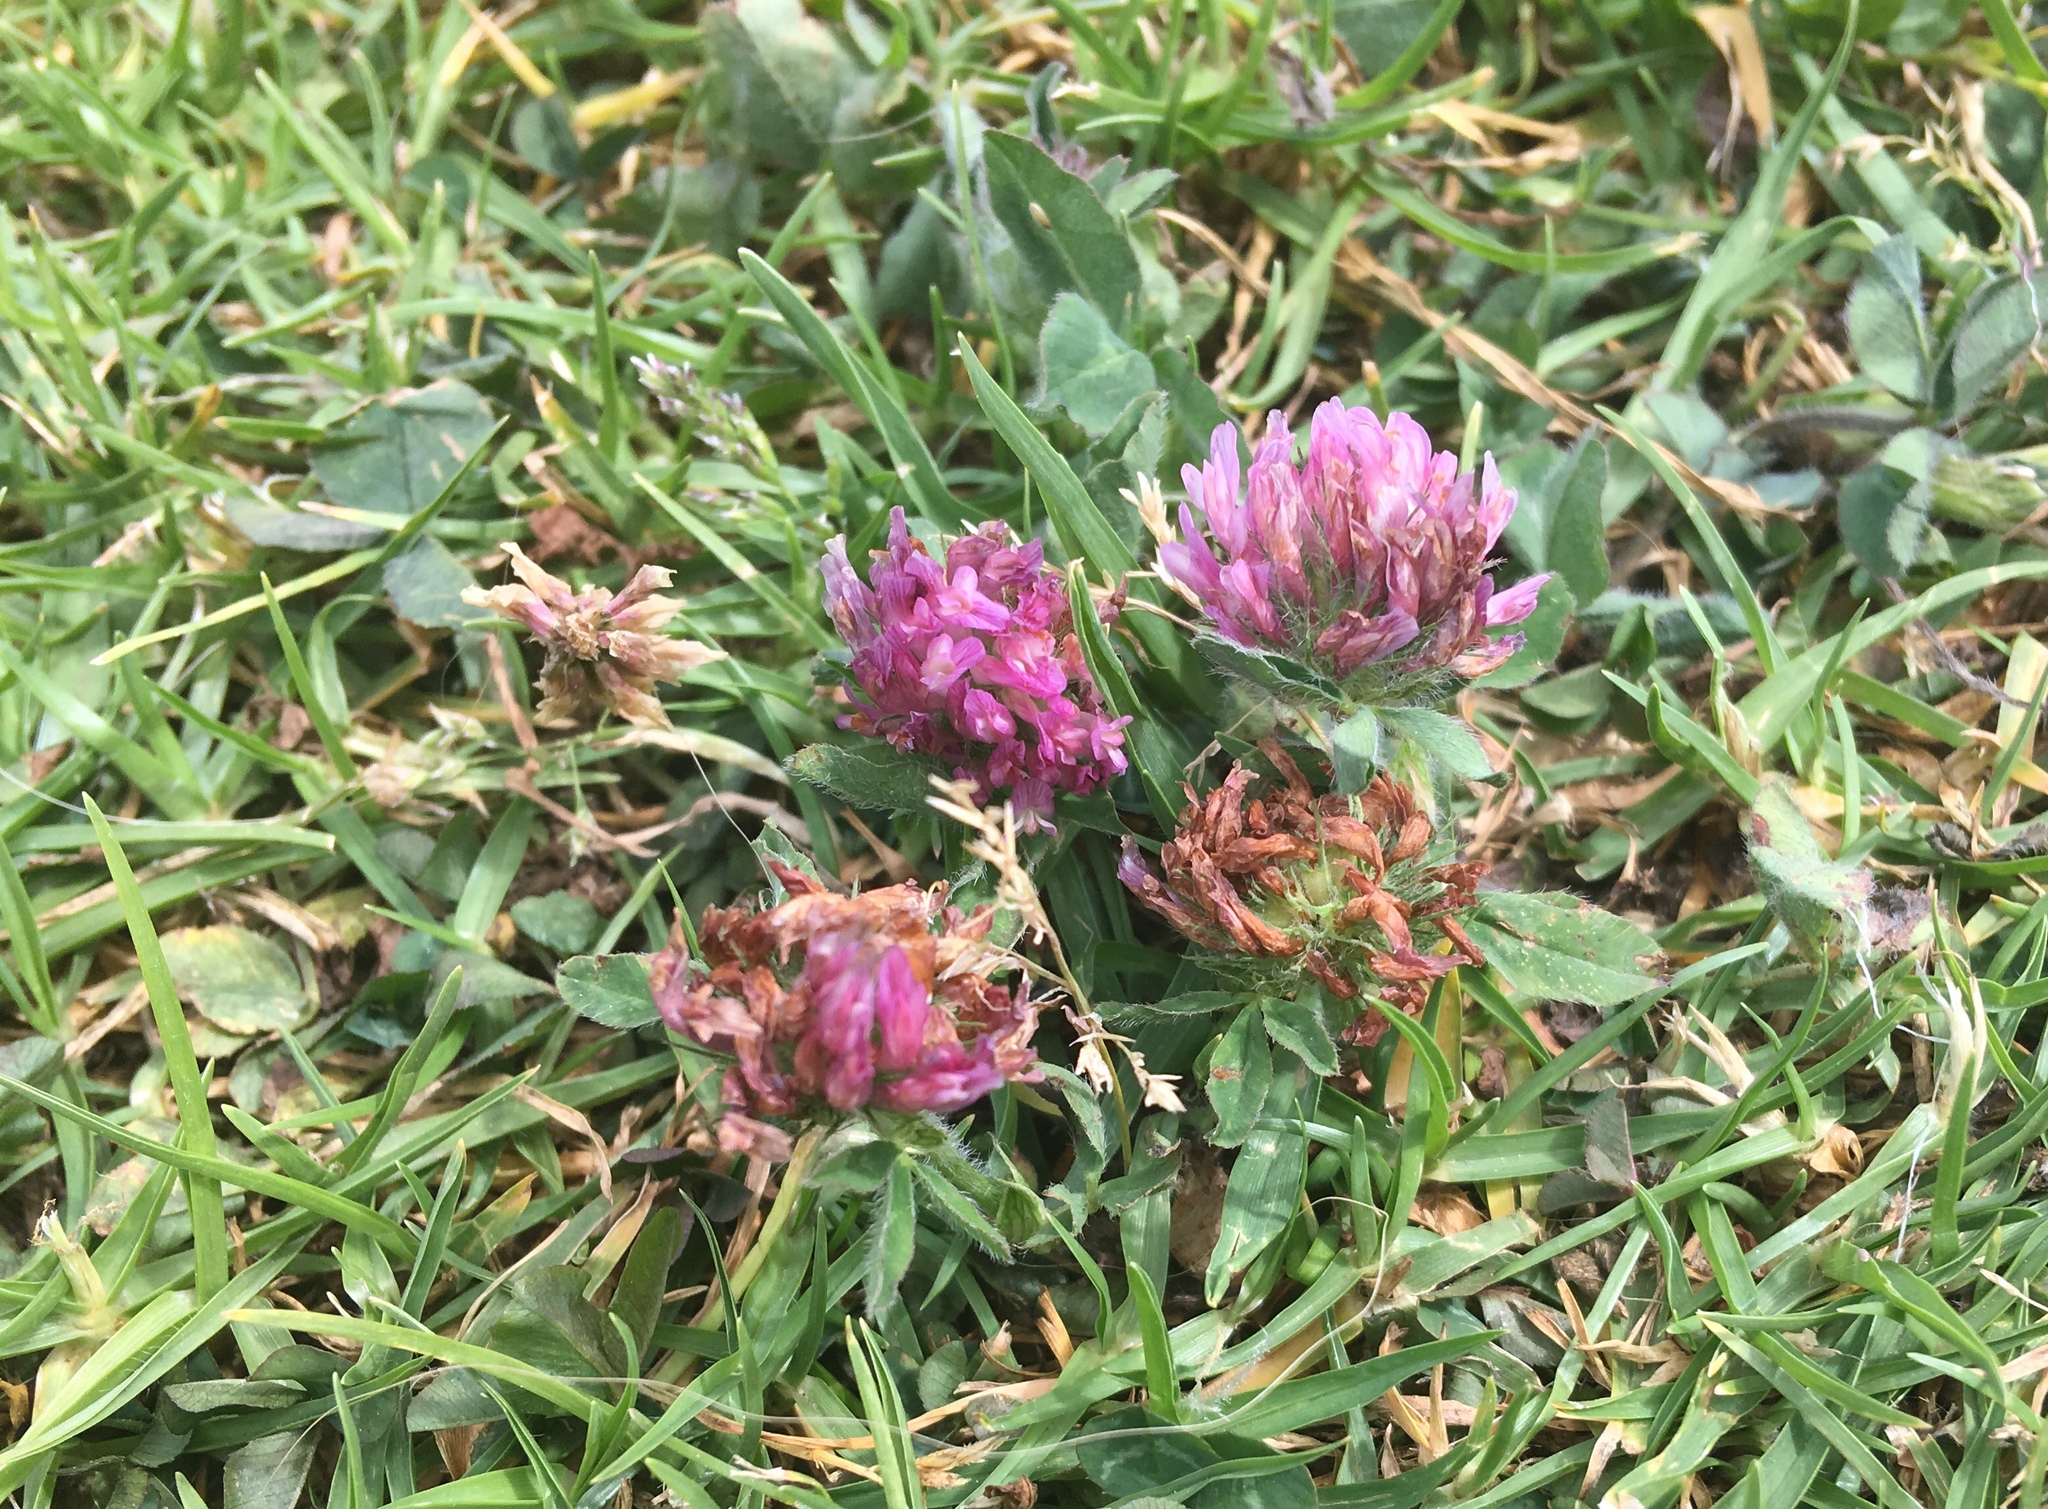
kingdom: Plantae
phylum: Tracheophyta
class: Magnoliopsida
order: Fabales
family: Fabaceae
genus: Trifolium
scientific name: Trifolium pratense
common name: Red clover
